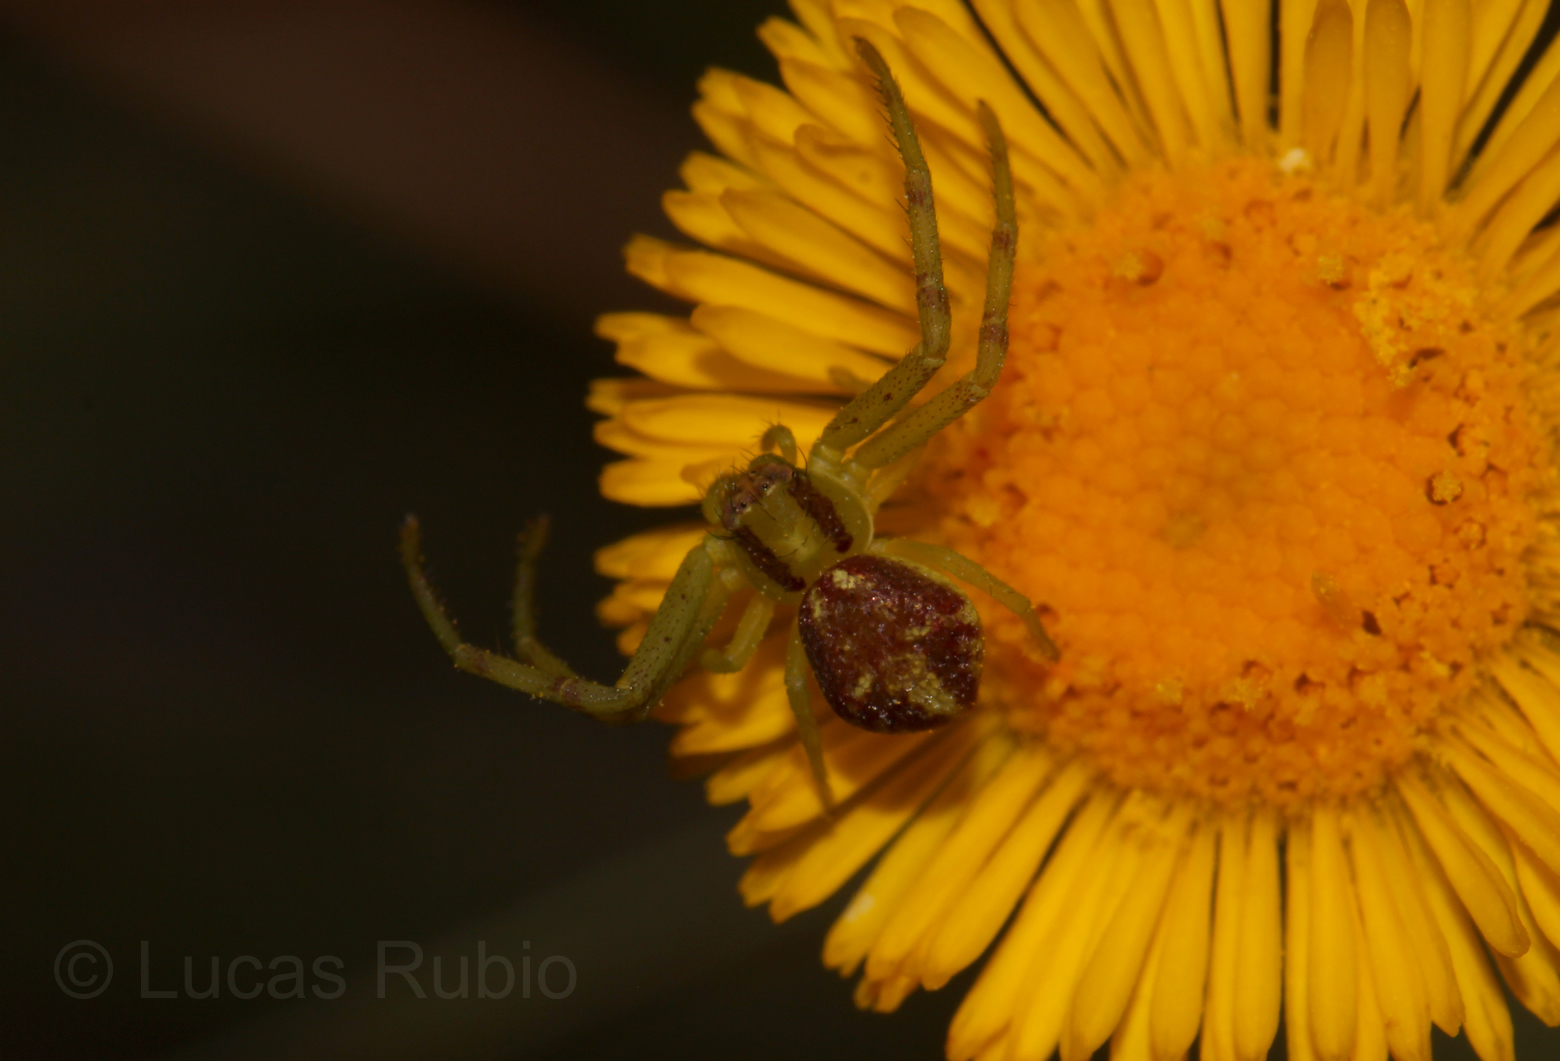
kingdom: Animalia
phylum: Arthropoda
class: Arachnida
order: Araneae
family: Thomisidae
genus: Misumenops
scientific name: Misumenops
